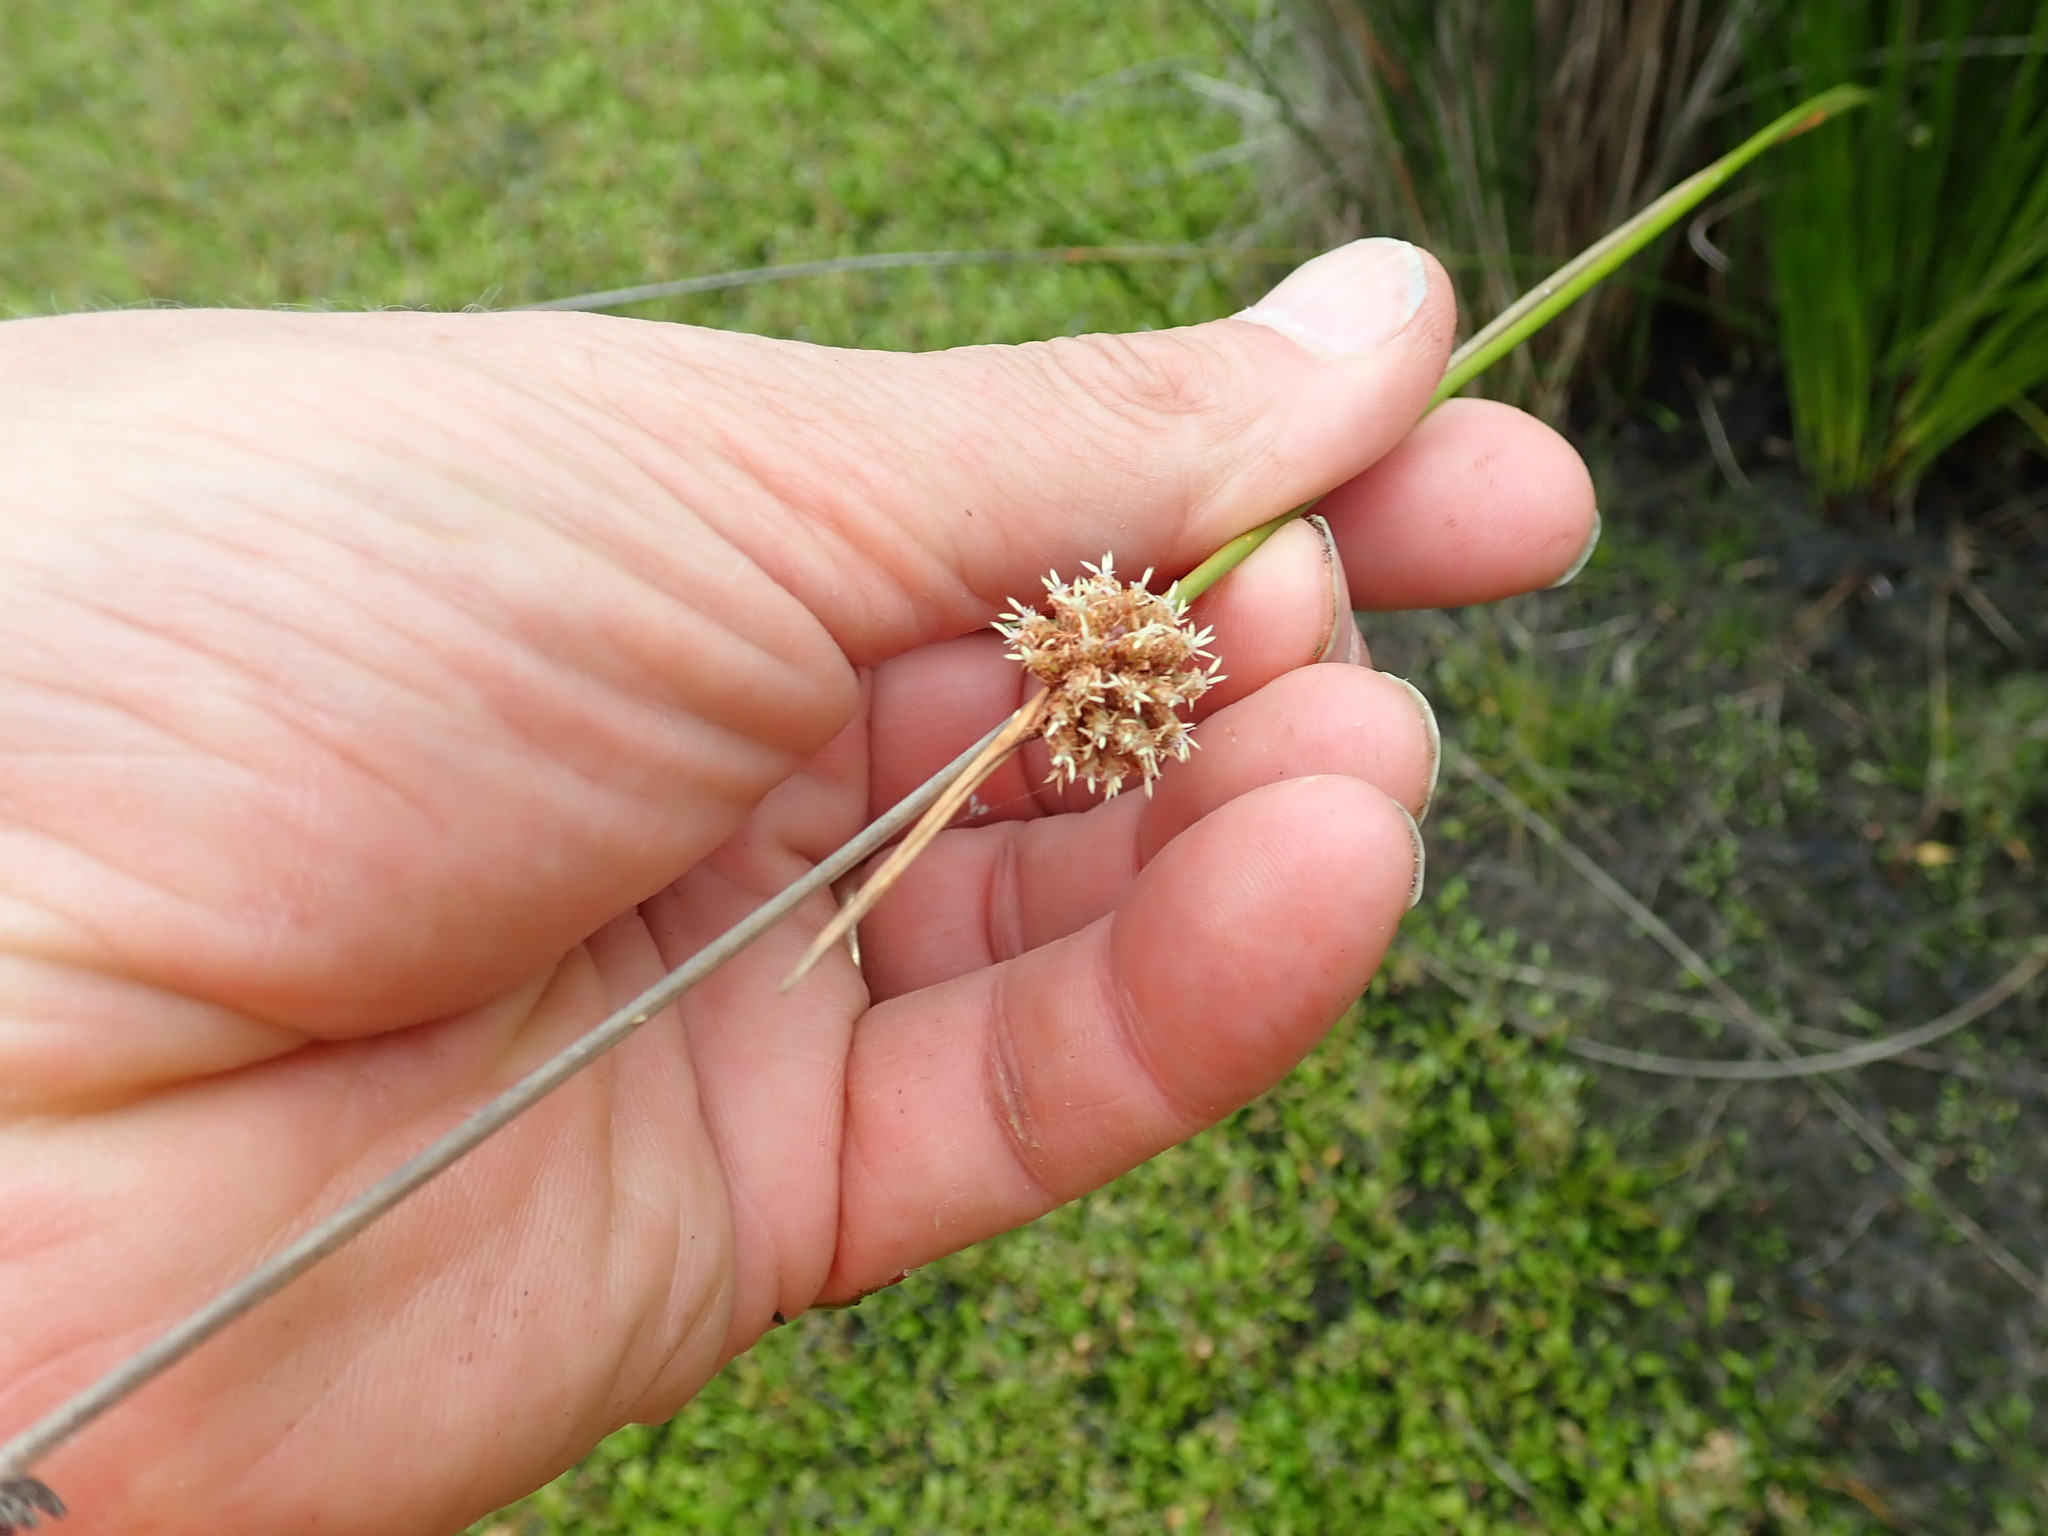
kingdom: Plantae
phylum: Tracheophyta
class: Liliopsida
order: Poales
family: Cyperaceae
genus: Ficinia
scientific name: Ficinia nodosa
